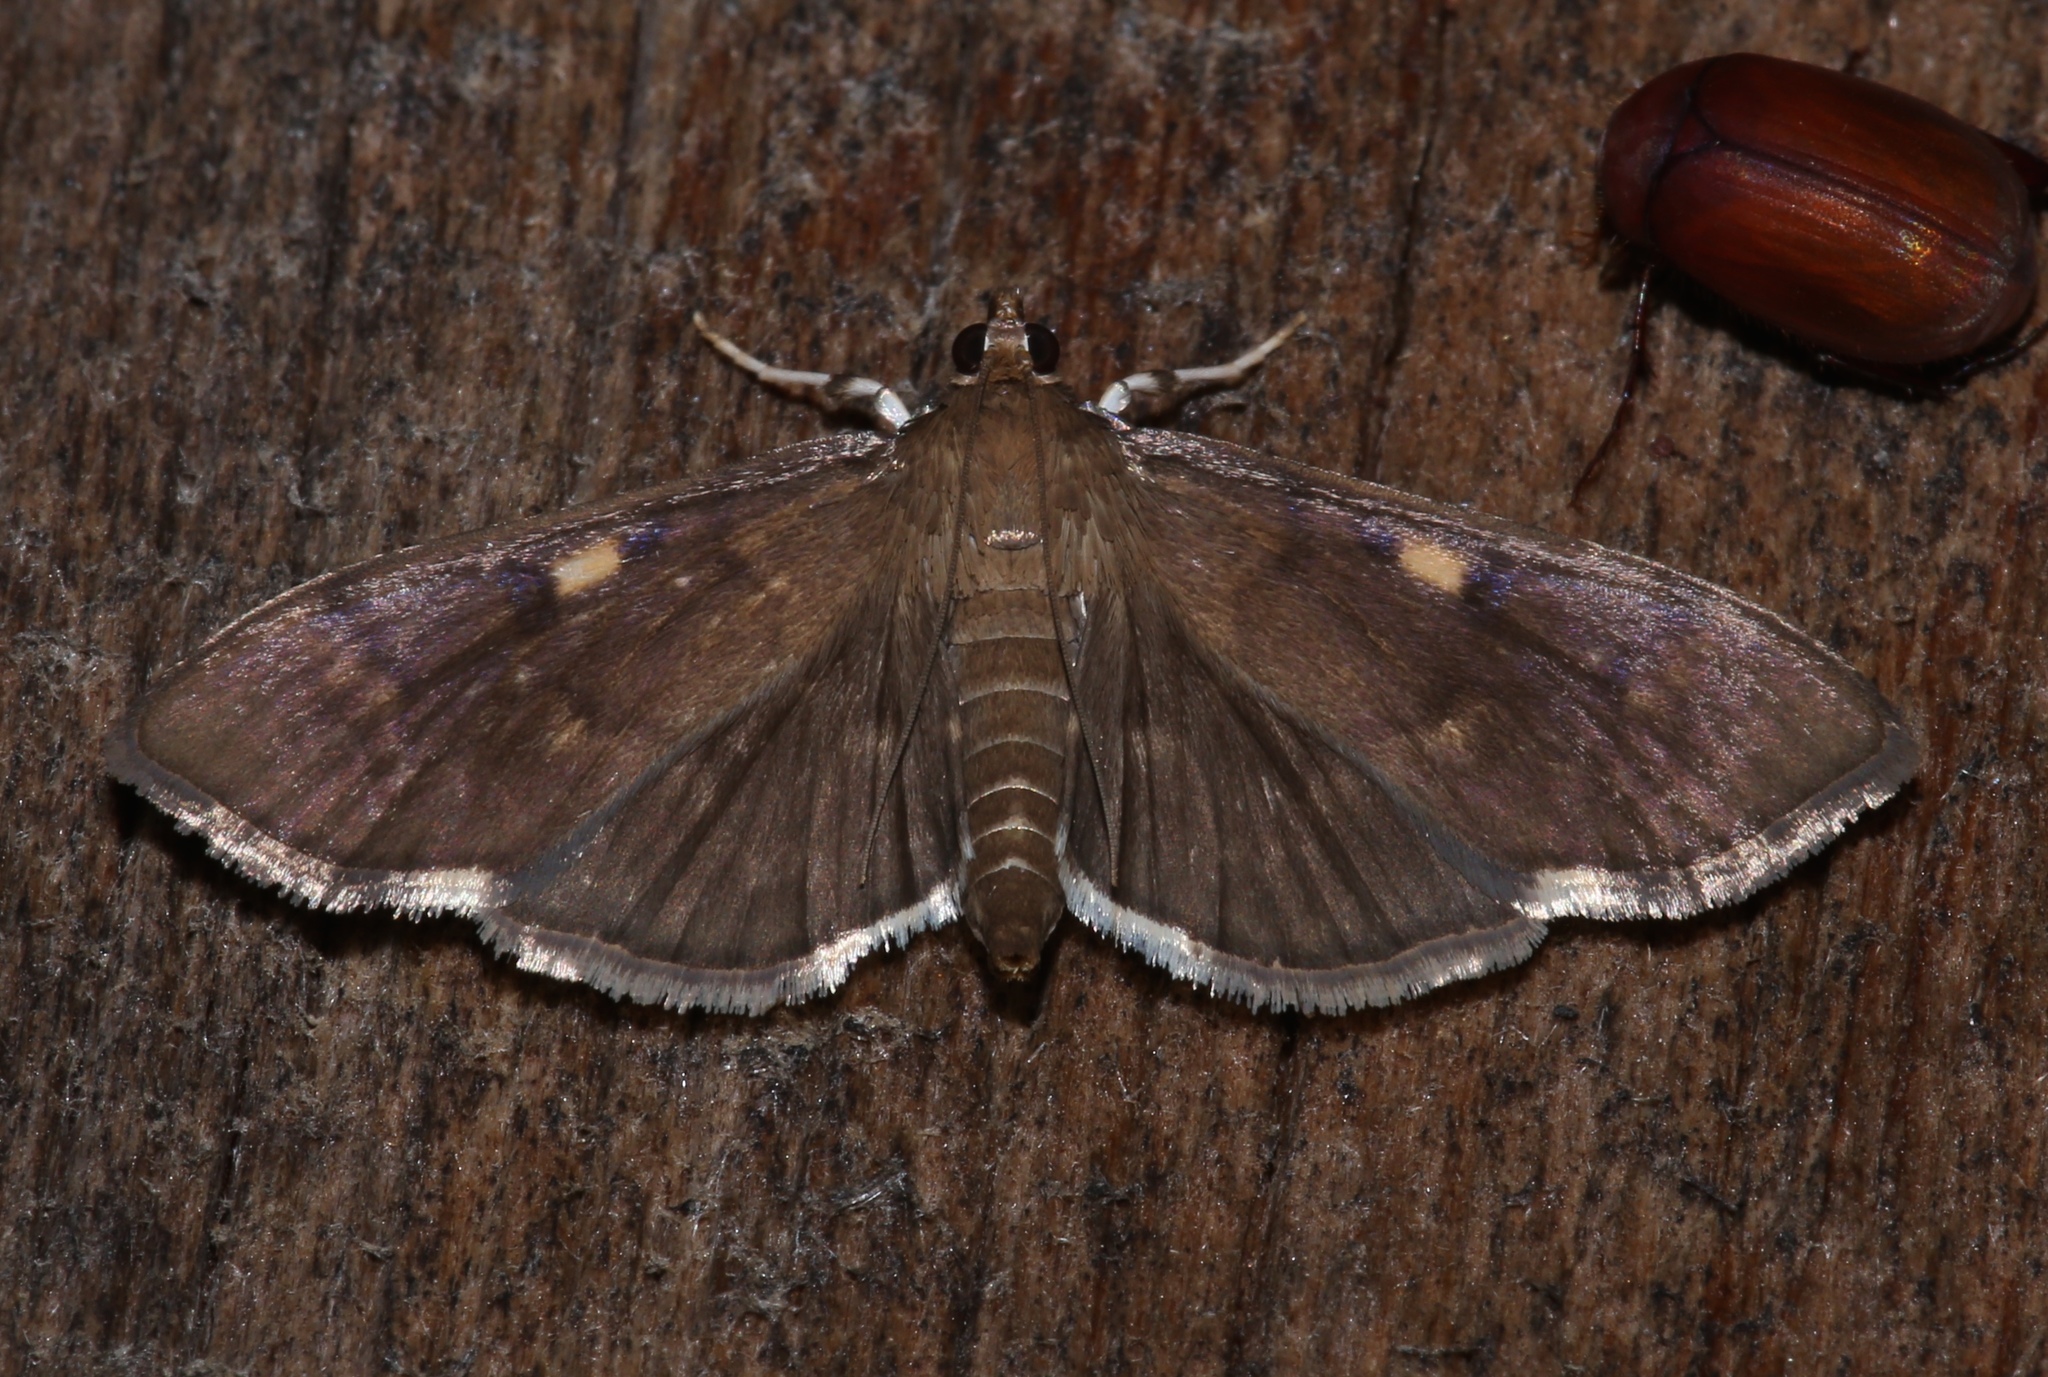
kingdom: Animalia
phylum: Arthropoda
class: Insecta
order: Lepidoptera
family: Crambidae
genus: Herpetogramma
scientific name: Herpetogramma sphingealis
